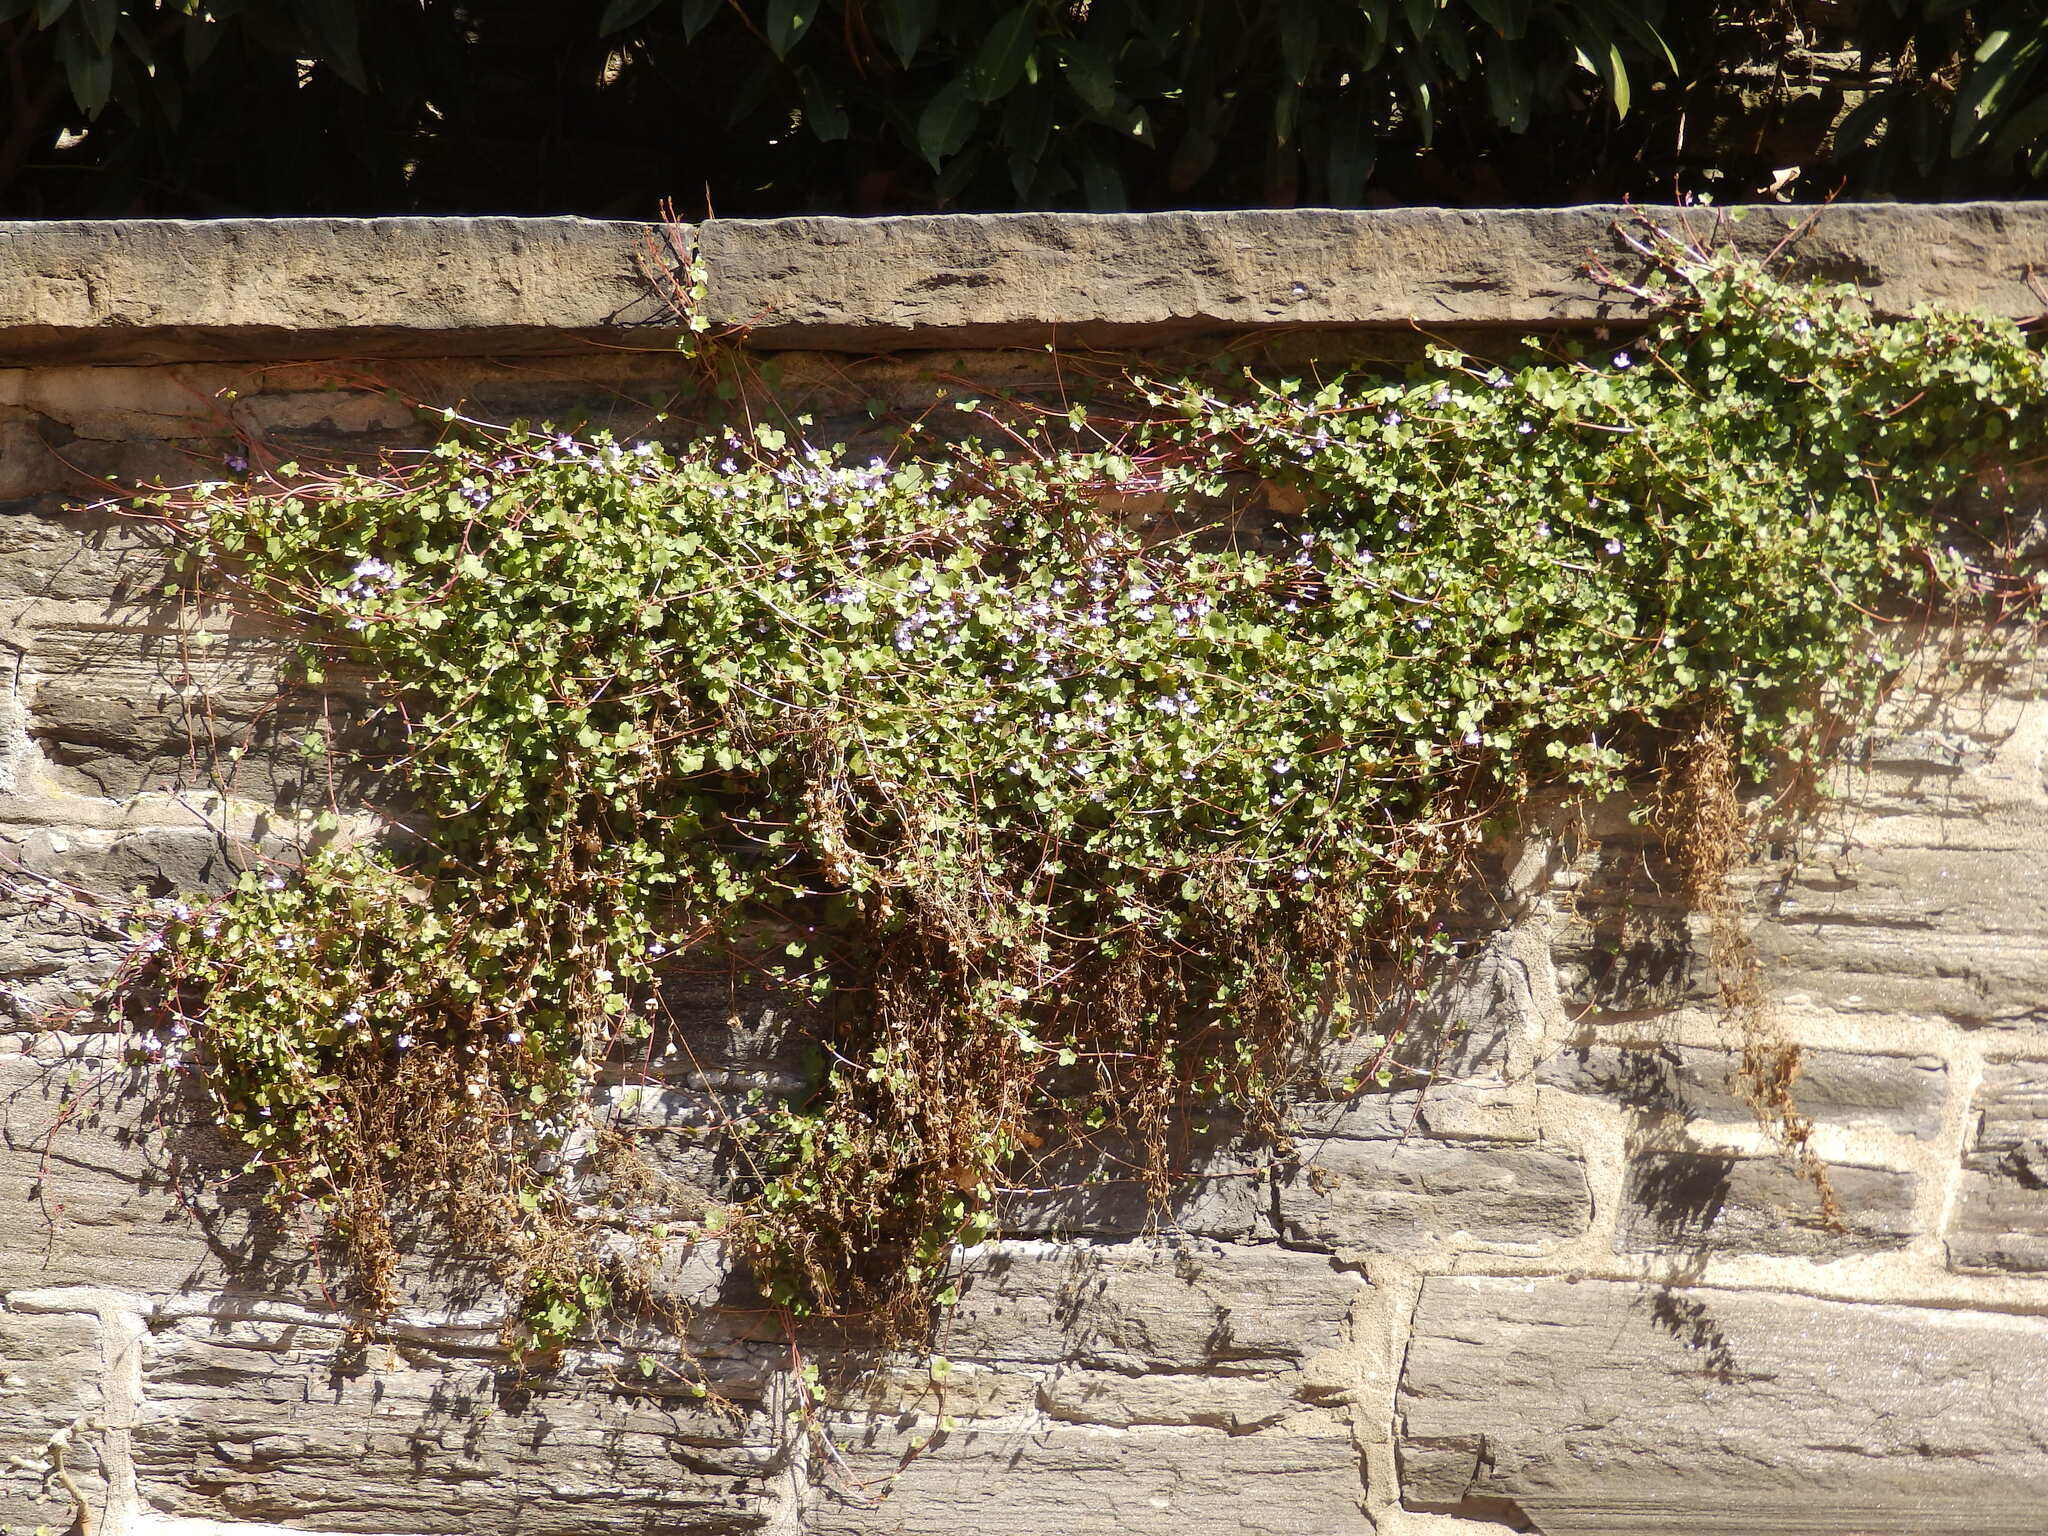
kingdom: Plantae
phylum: Tracheophyta
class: Magnoliopsida
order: Lamiales
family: Plantaginaceae
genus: Cymbalaria
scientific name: Cymbalaria muralis
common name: Ivy-leaved toadflax
